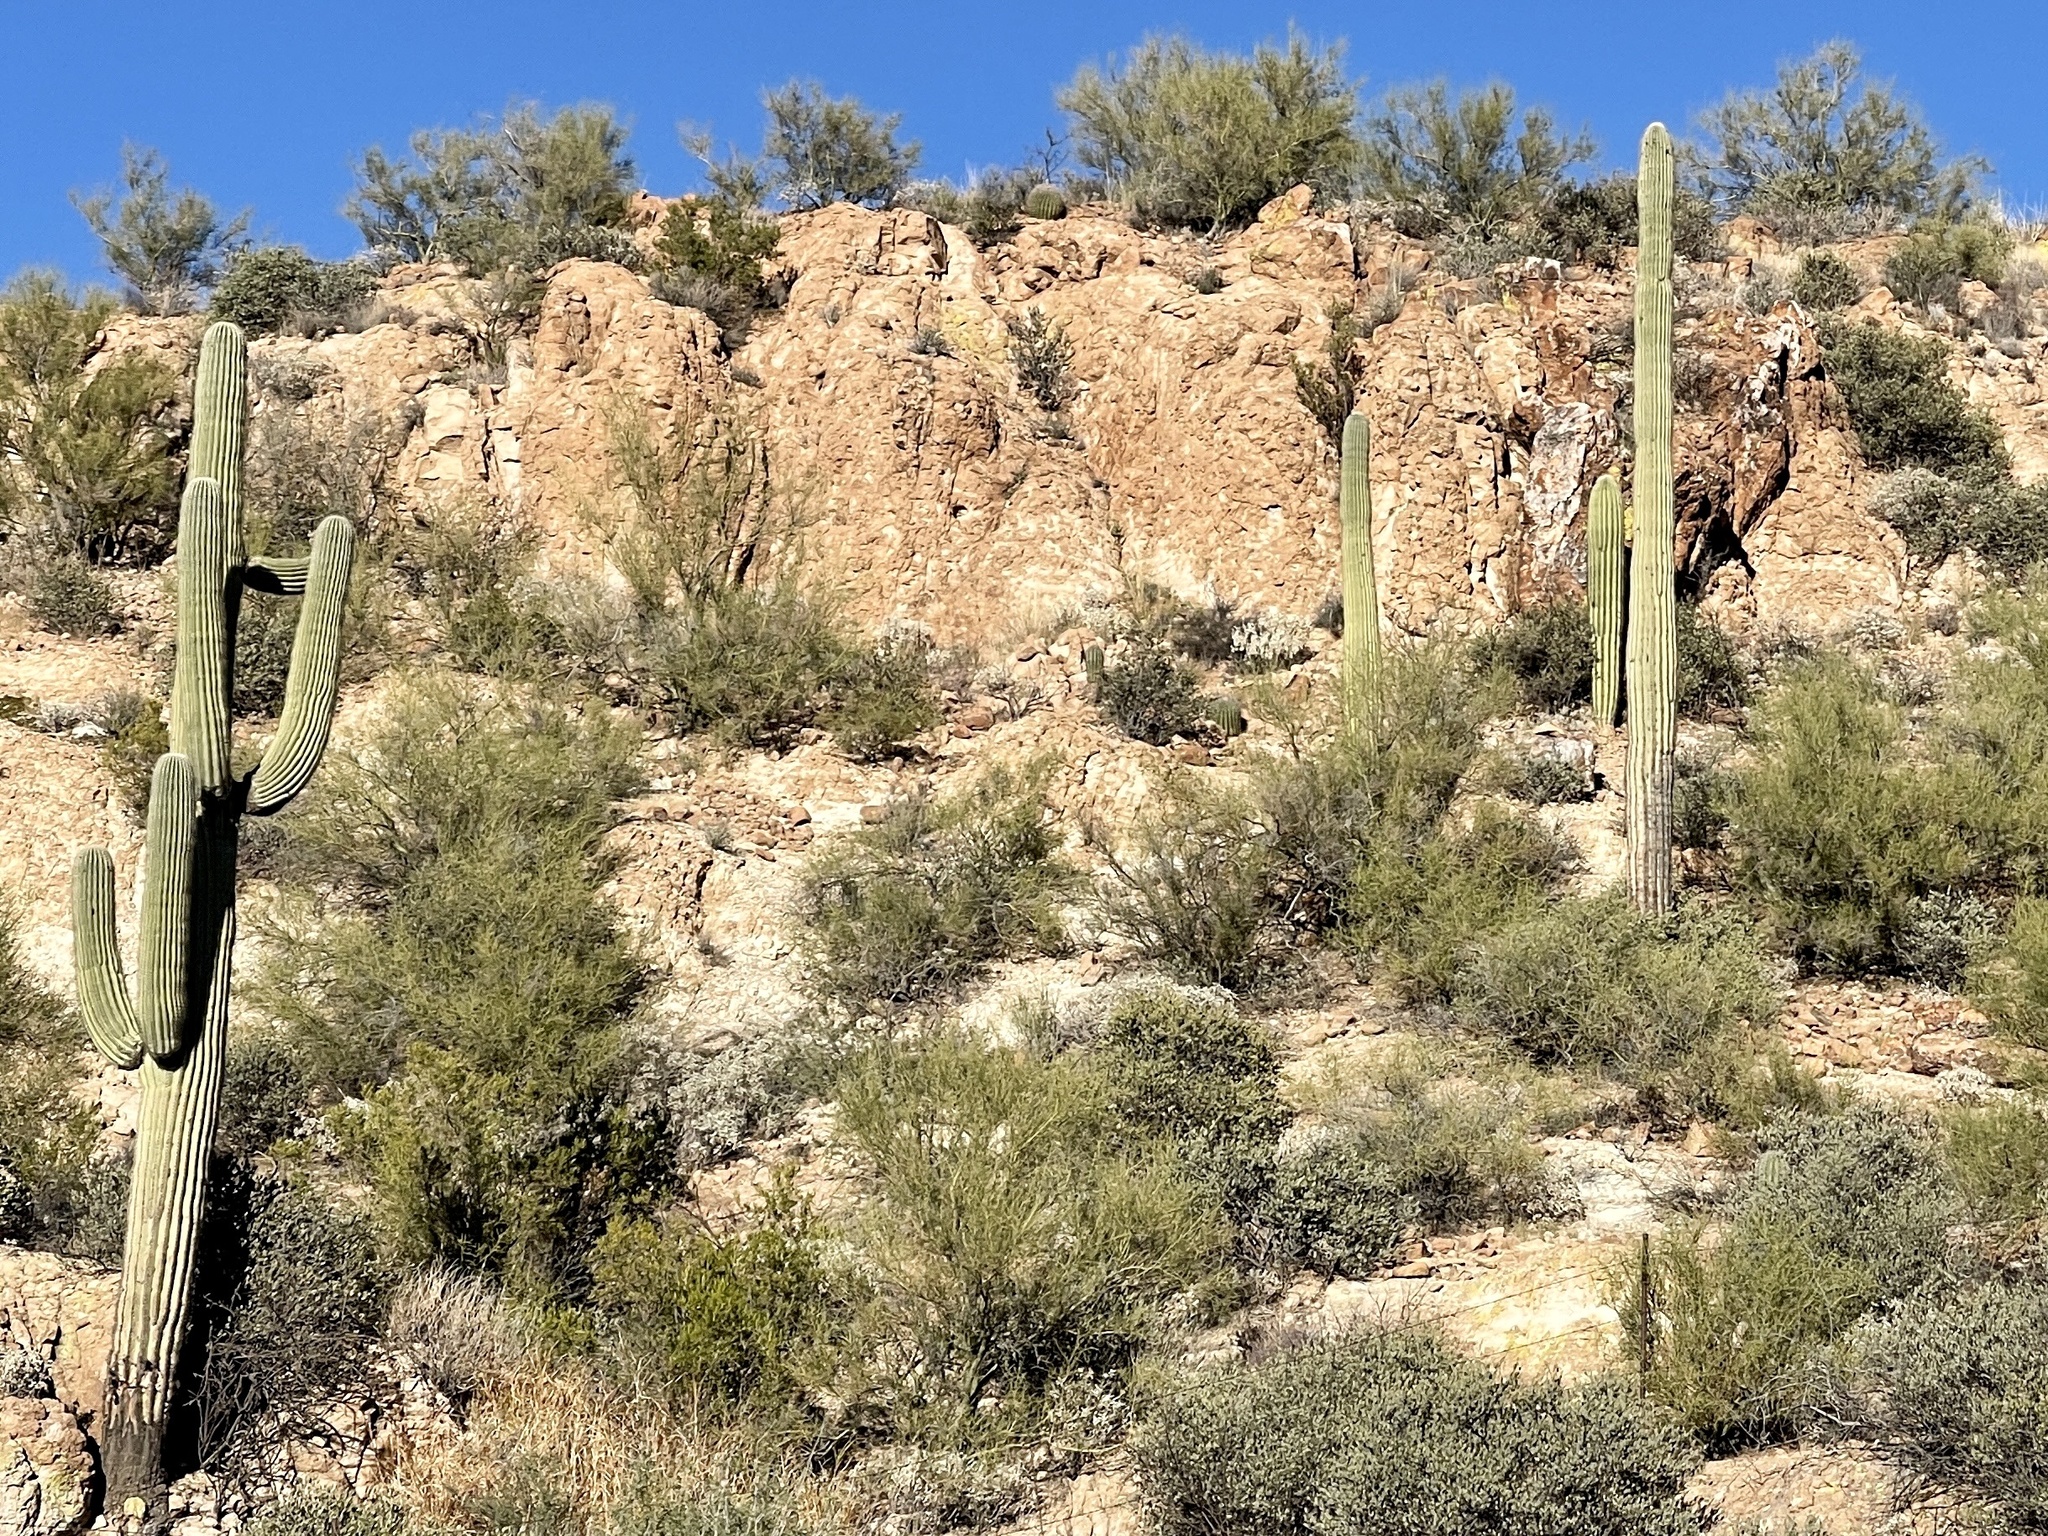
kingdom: Plantae
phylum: Tracheophyta
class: Magnoliopsida
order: Caryophyllales
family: Cactaceae
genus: Carnegiea
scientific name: Carnegiea gigantea
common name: Saguaro
